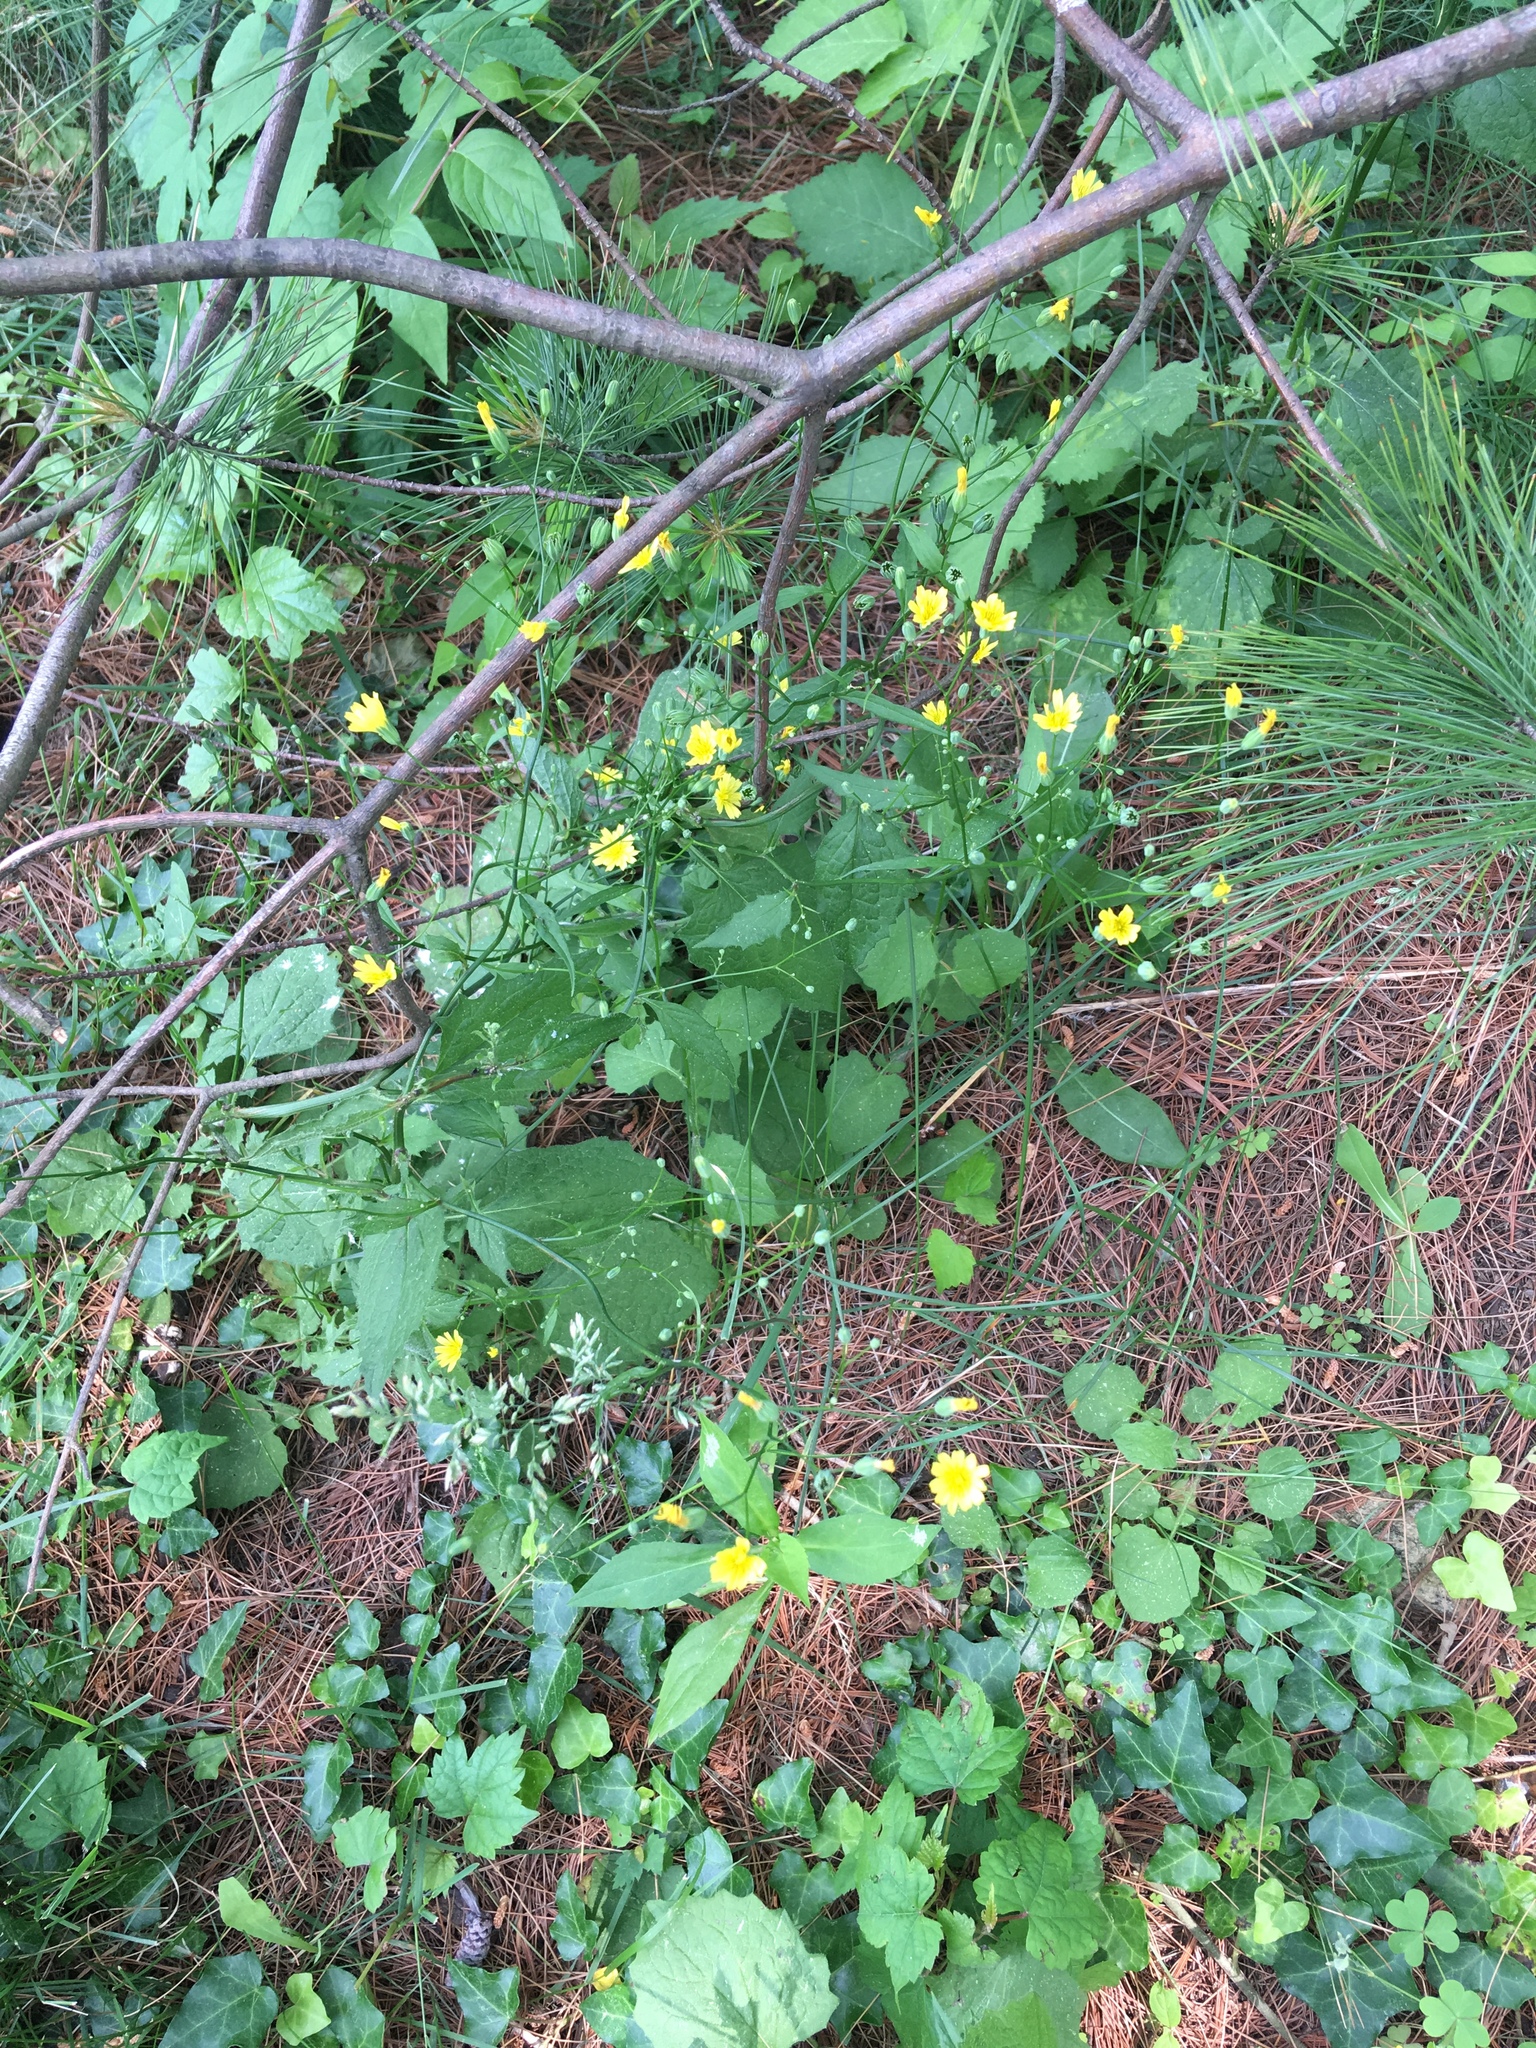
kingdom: Plantae
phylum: Tracheophyta
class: Magnoliopsida
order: Asterales
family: Asteraceae
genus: Lapsana
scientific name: Lapsana communis
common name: Nipplewort
